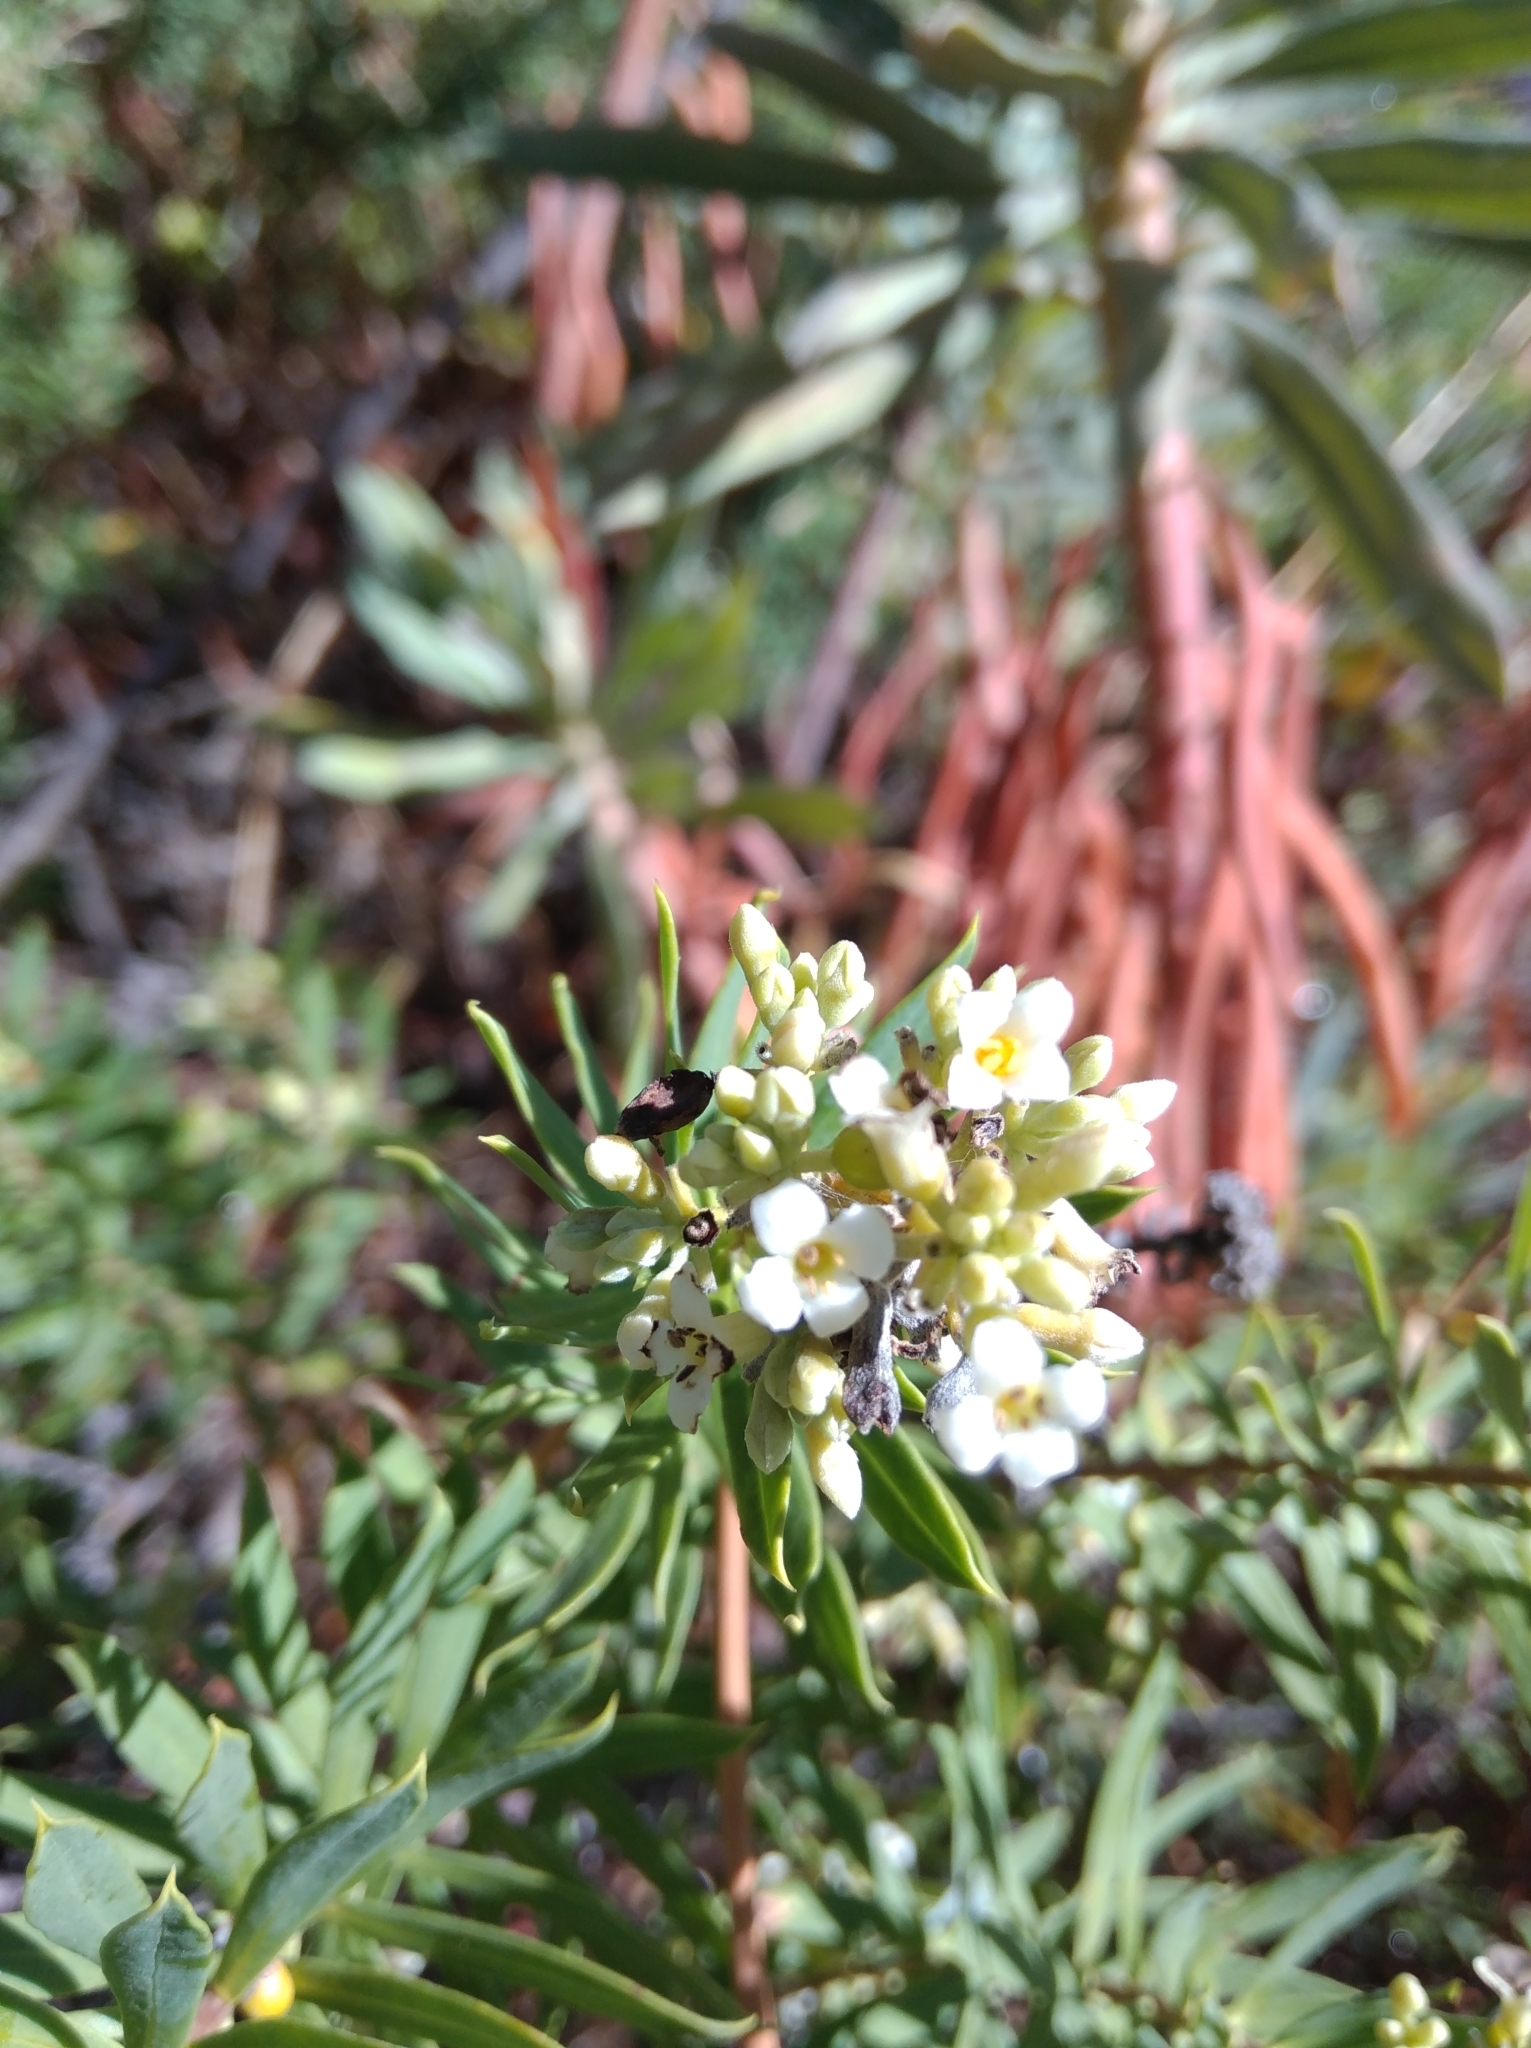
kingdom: Plantae
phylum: Tracheophyta
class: Magnoliopsida
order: Malvales
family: Thymelaeaceae
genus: Daphne
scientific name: Daphne gnidium
